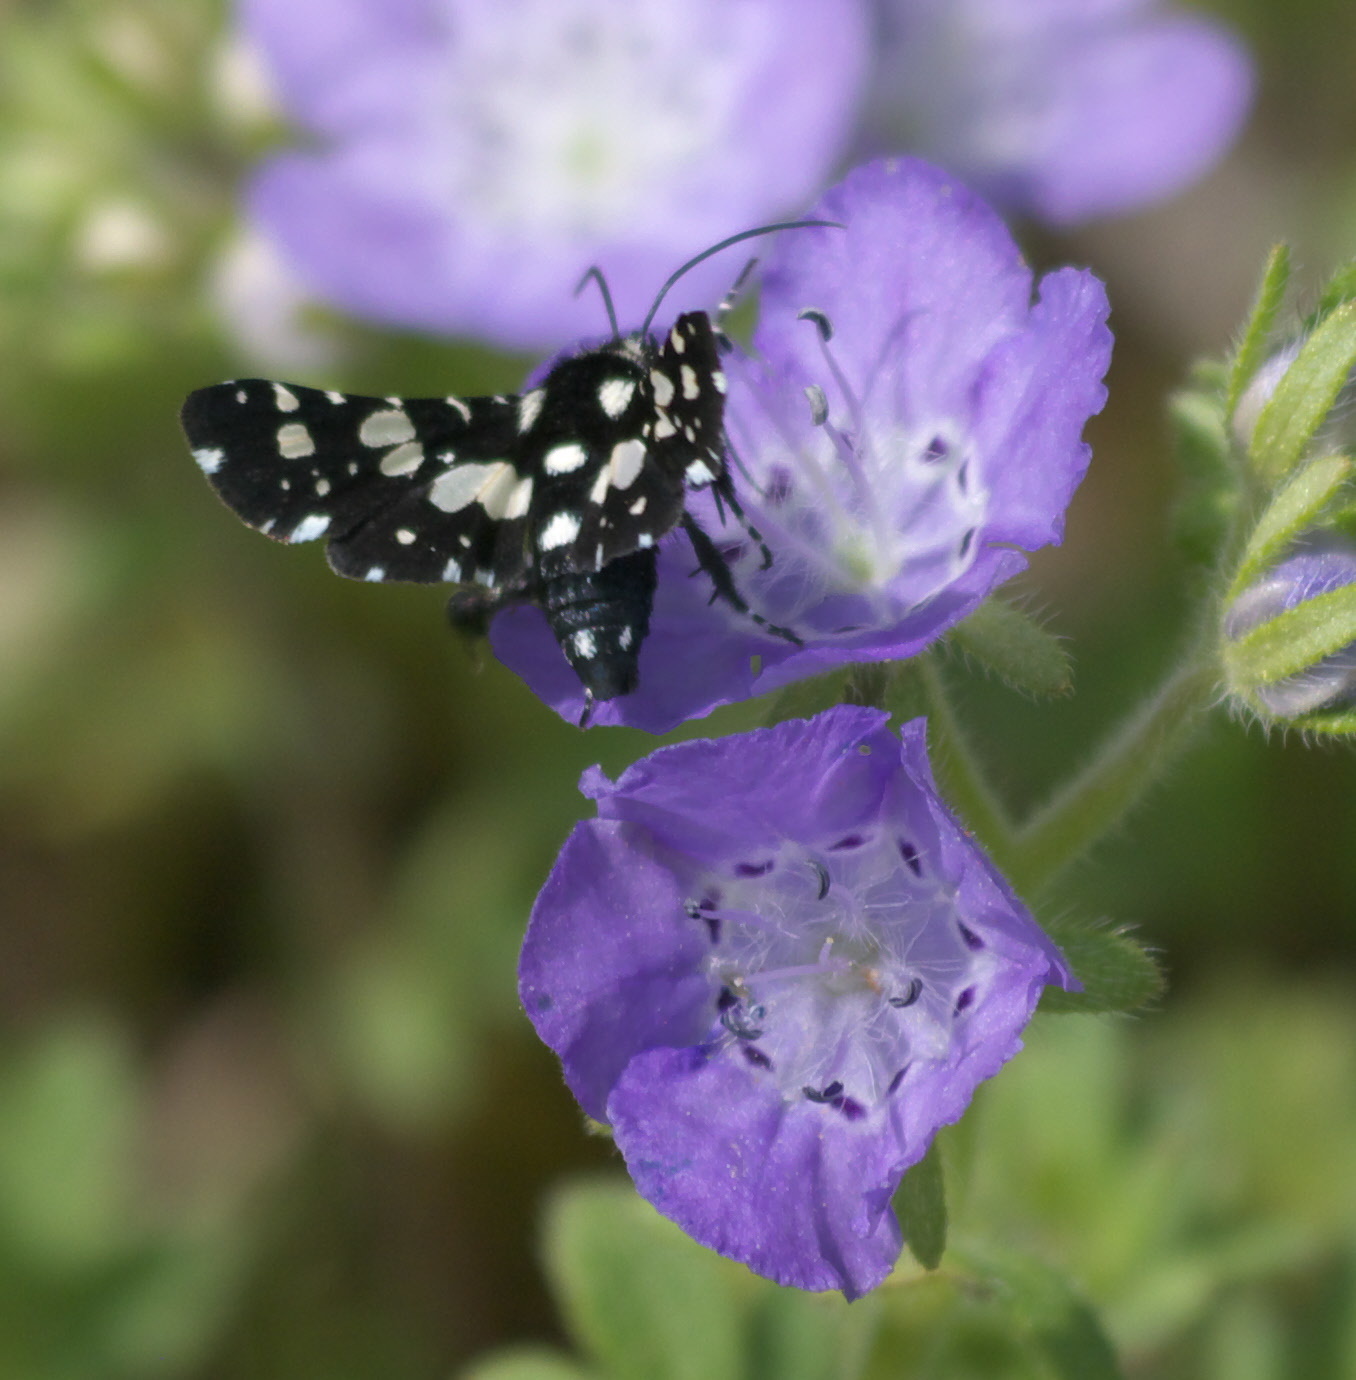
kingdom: Animalia
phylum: Arthropoda
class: Insecta
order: Lepidoptera
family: Thyrididae
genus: Pseudothyris
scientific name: Pseudothyris sepulchralis
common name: Mournful thyris moth
